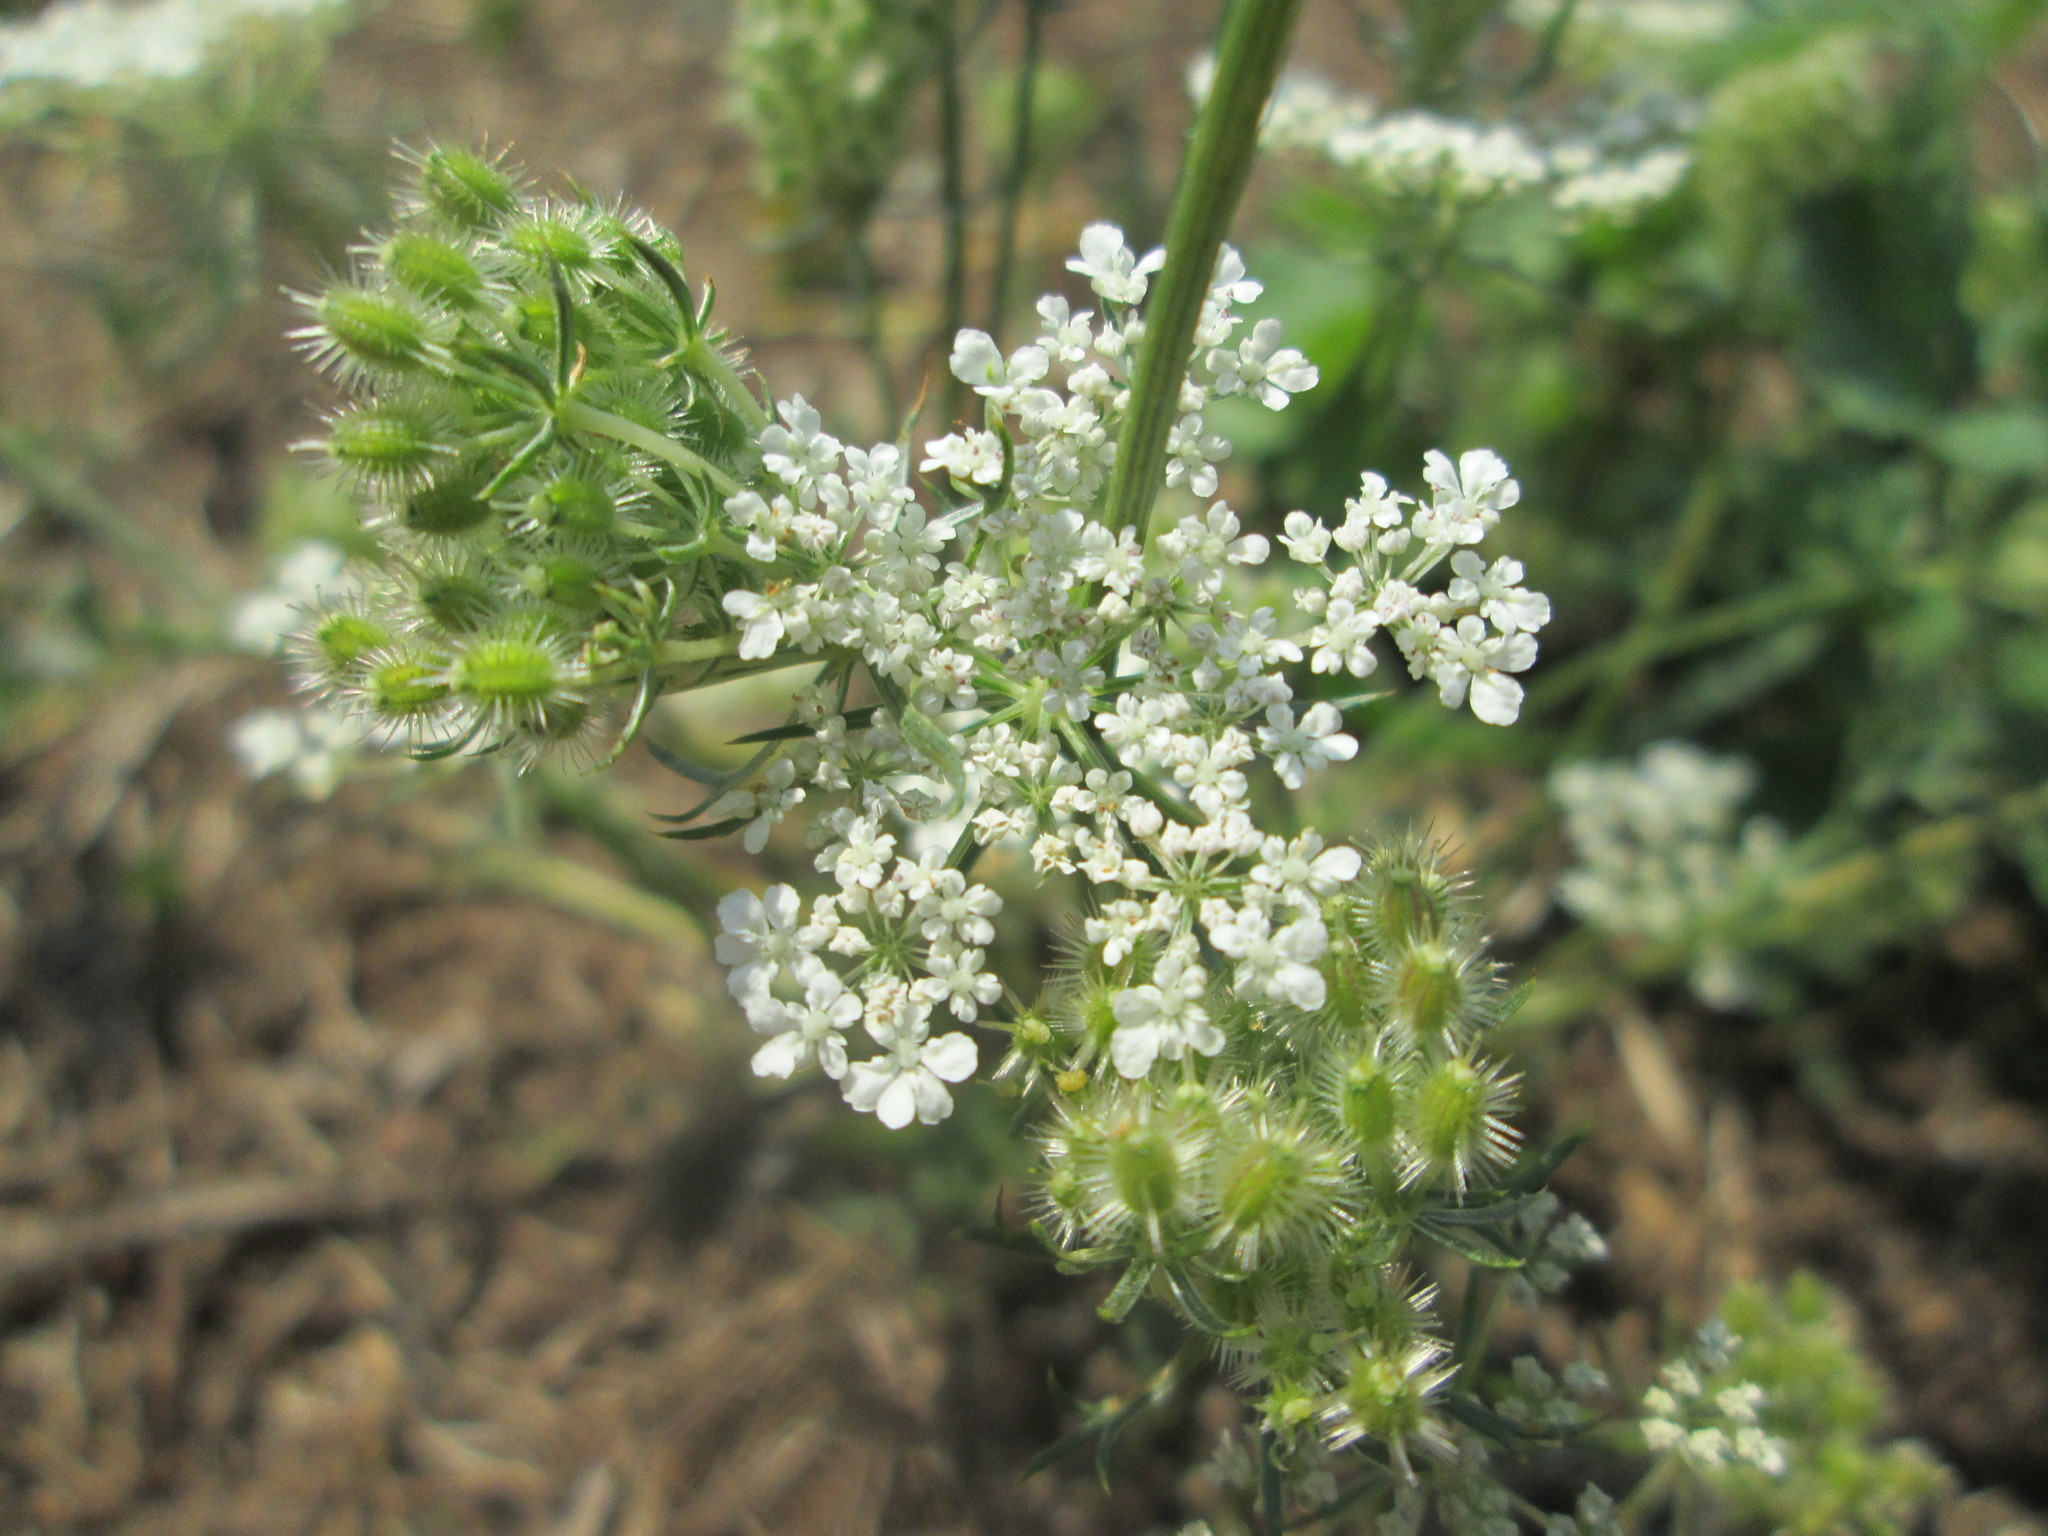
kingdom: Plantae
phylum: Tracheophyta
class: Magnoliopsida
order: Apiales
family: Apiaceae
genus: Daucus
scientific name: Daucus carota
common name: Wild carrot
